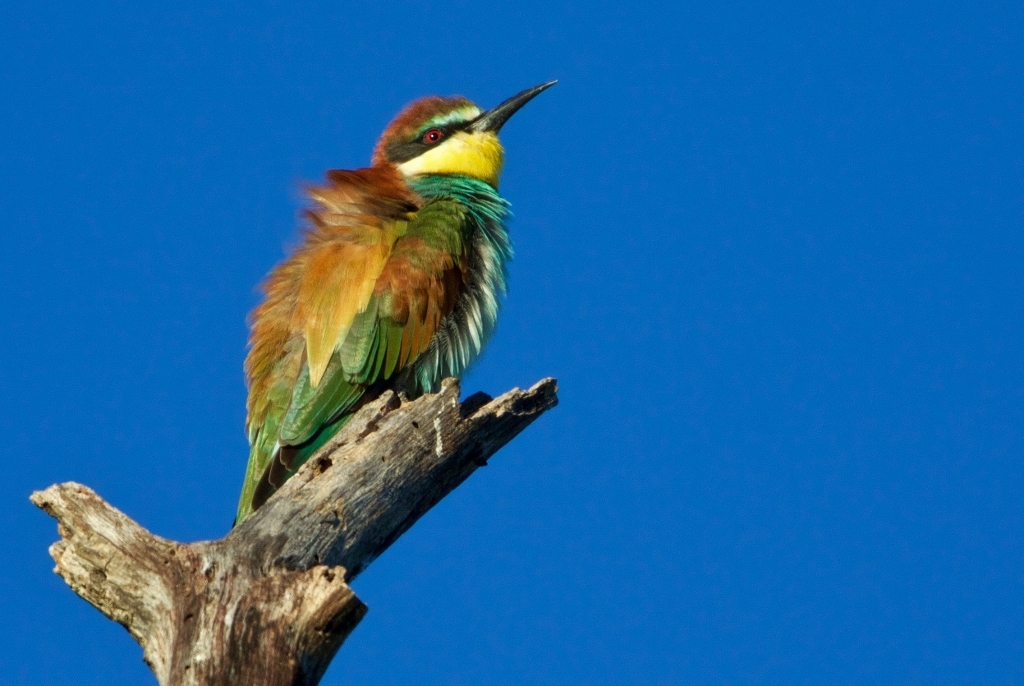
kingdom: Animalia
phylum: Chordata
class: Aves
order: Coraciiformes
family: Meropidae
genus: Merops
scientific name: Merops apiaster
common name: European bee-eater
